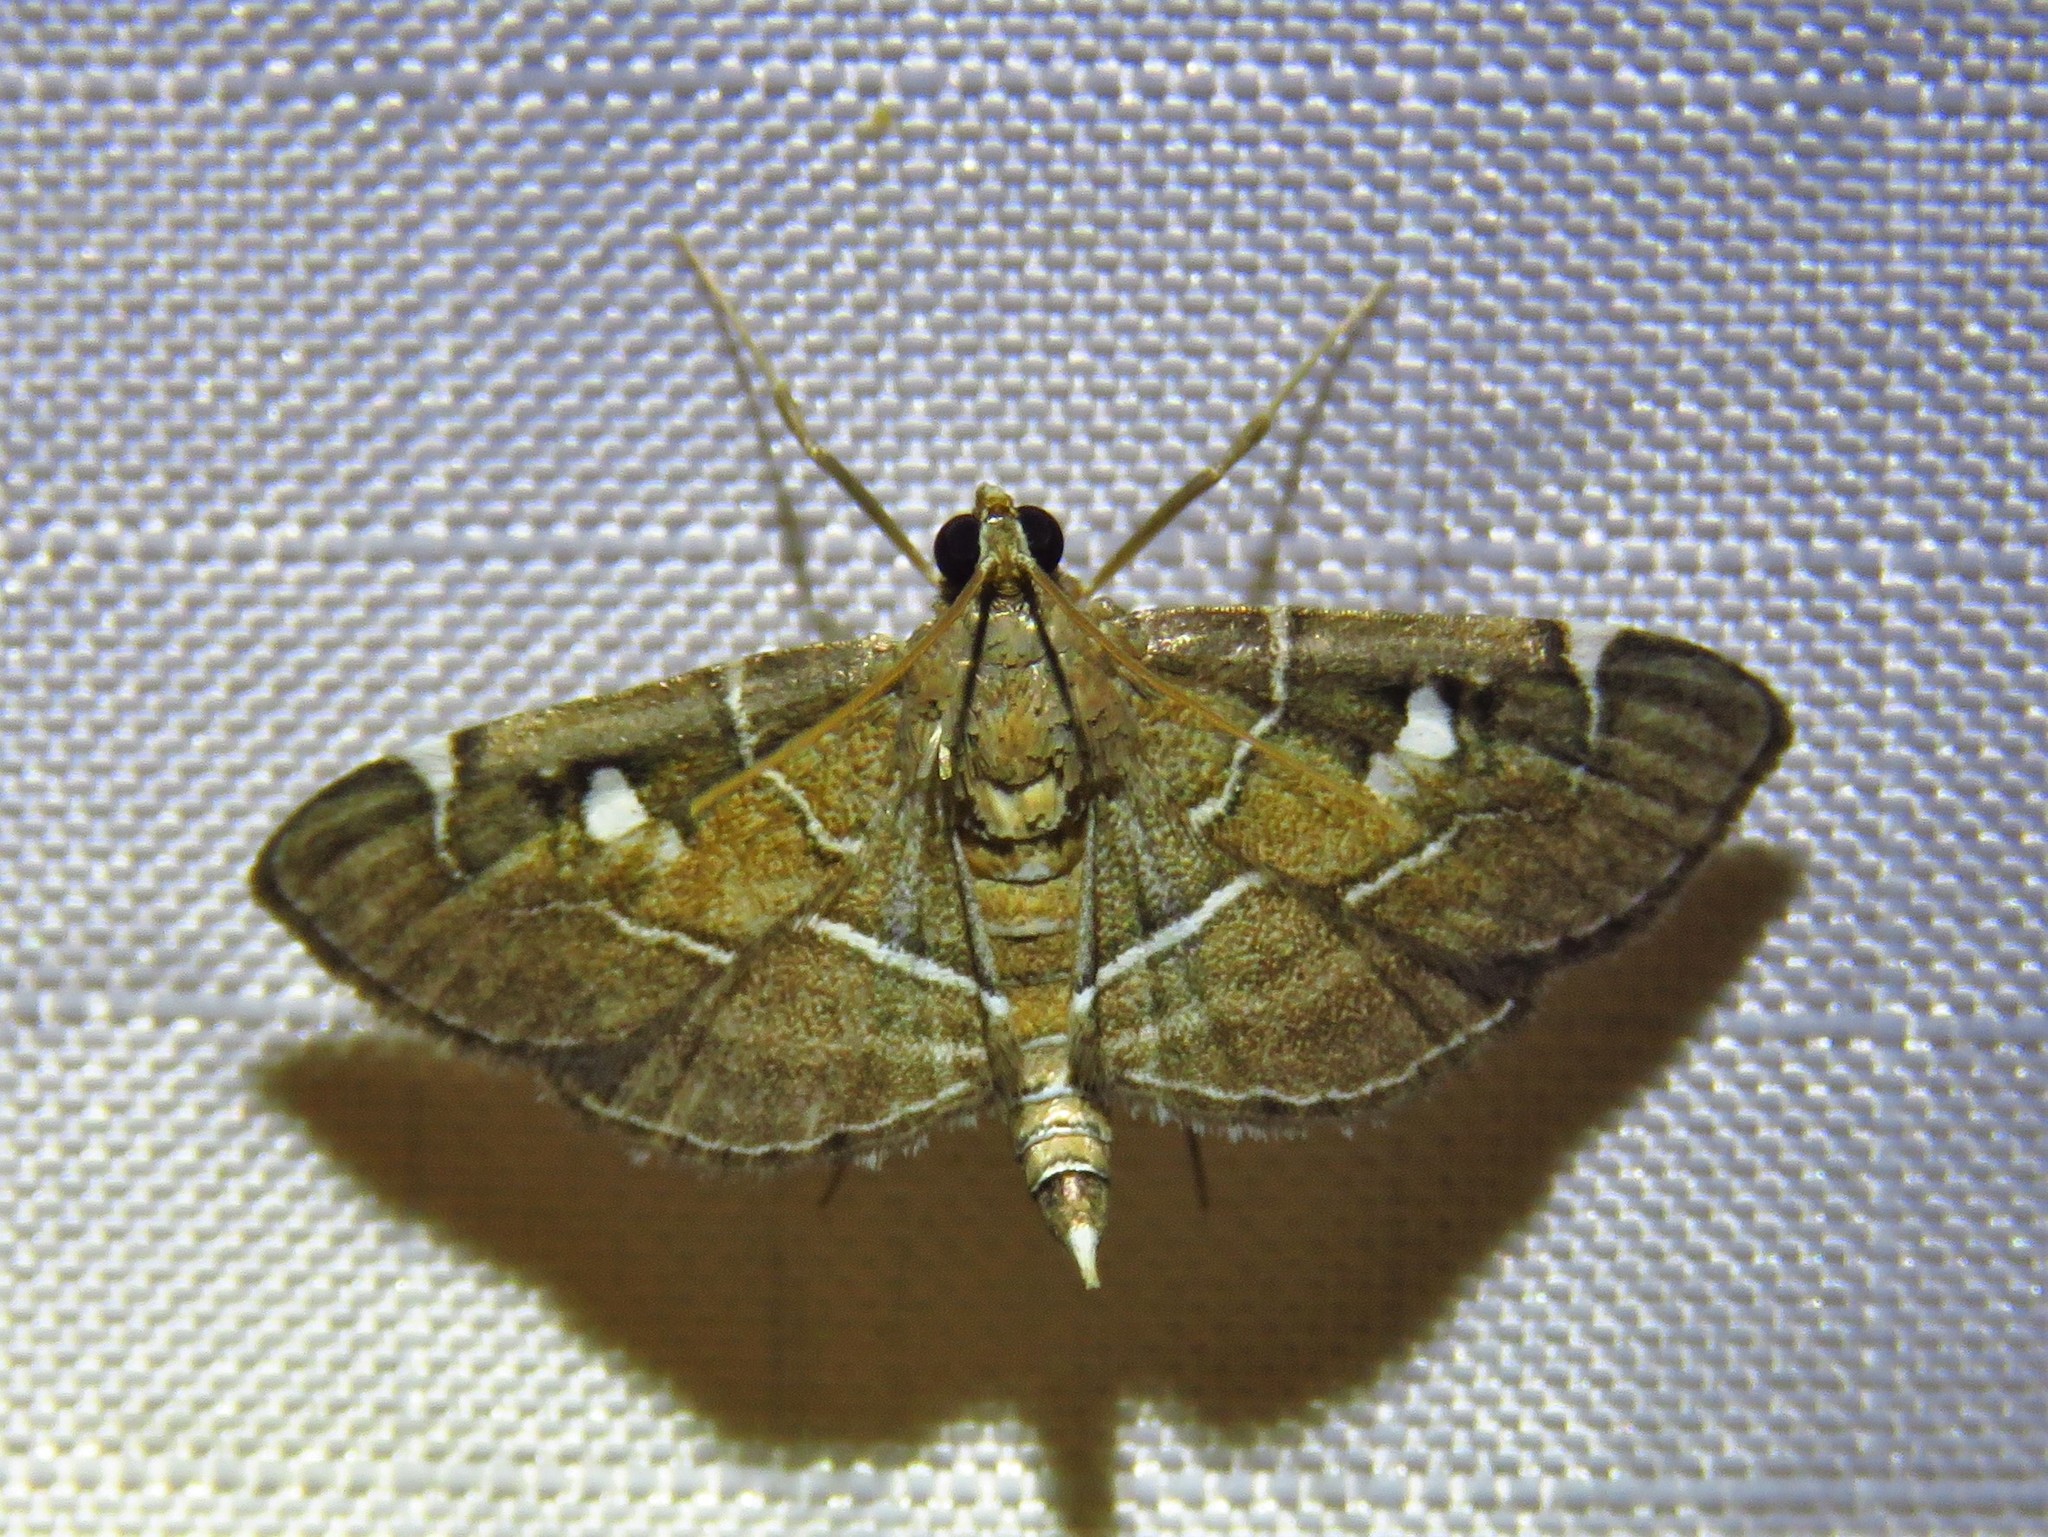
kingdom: Animalia
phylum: Arthropoda
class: Insecta
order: Lepidoptera
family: Crambidae
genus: Lamprosema
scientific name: Lamprosema victoriae
